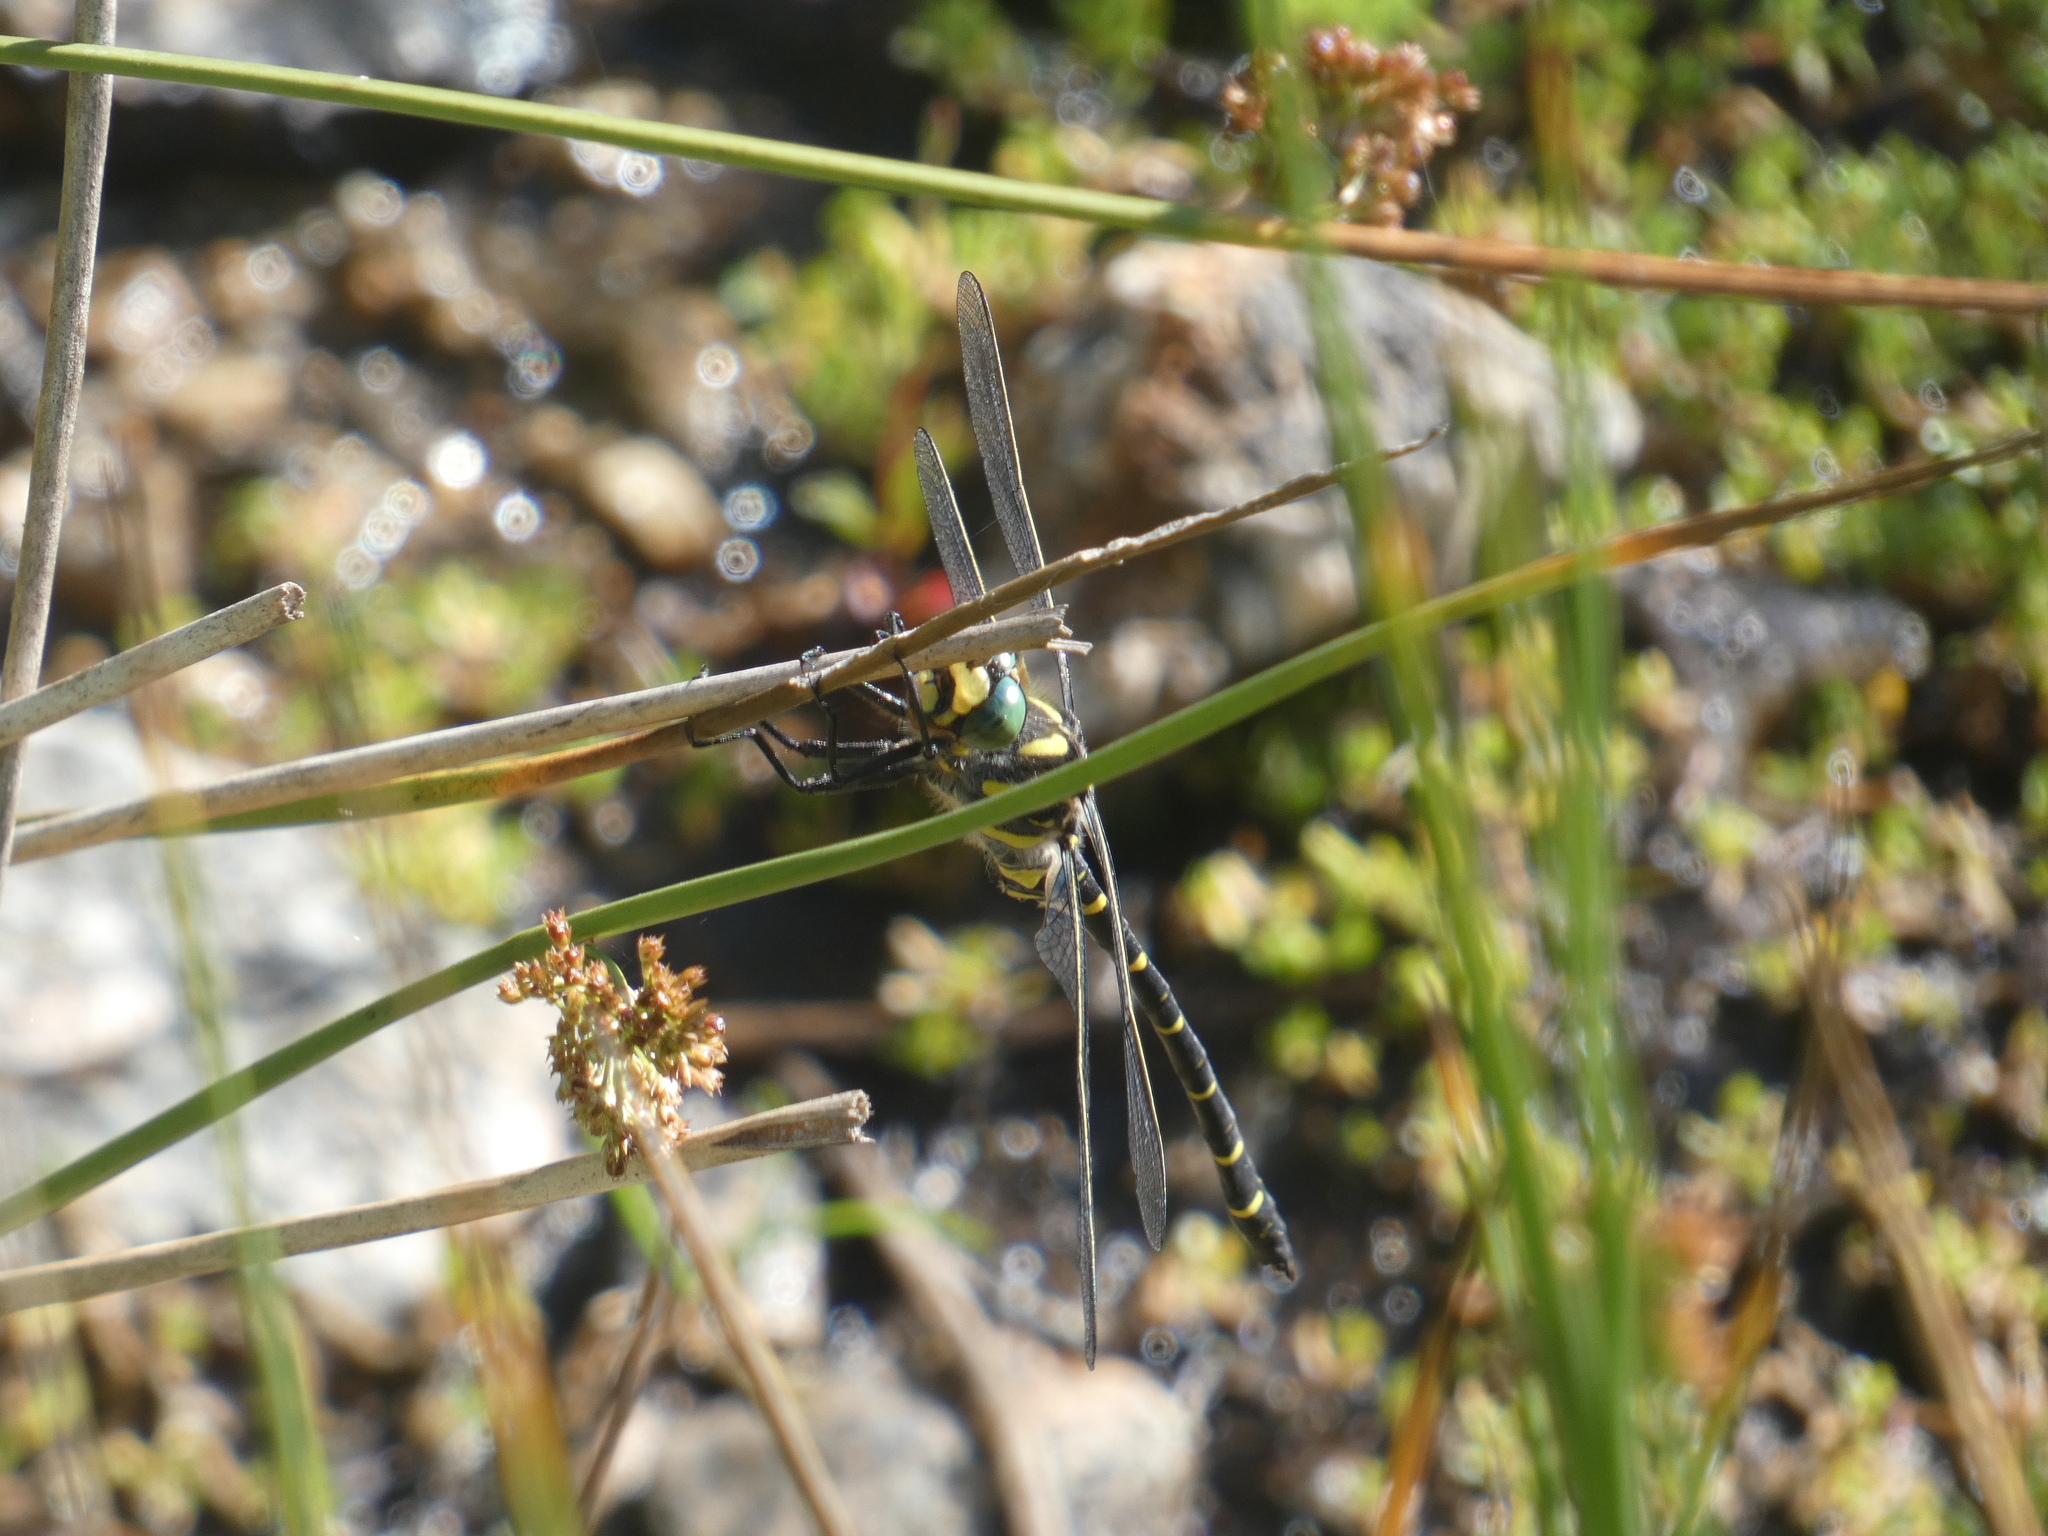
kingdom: Animalia
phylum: Arthropoda
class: Insecta
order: Odonata
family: Cordulegastridae
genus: Cordulegaster
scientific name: Cordulegaster boltonii
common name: Golden-ringed dragonfly
